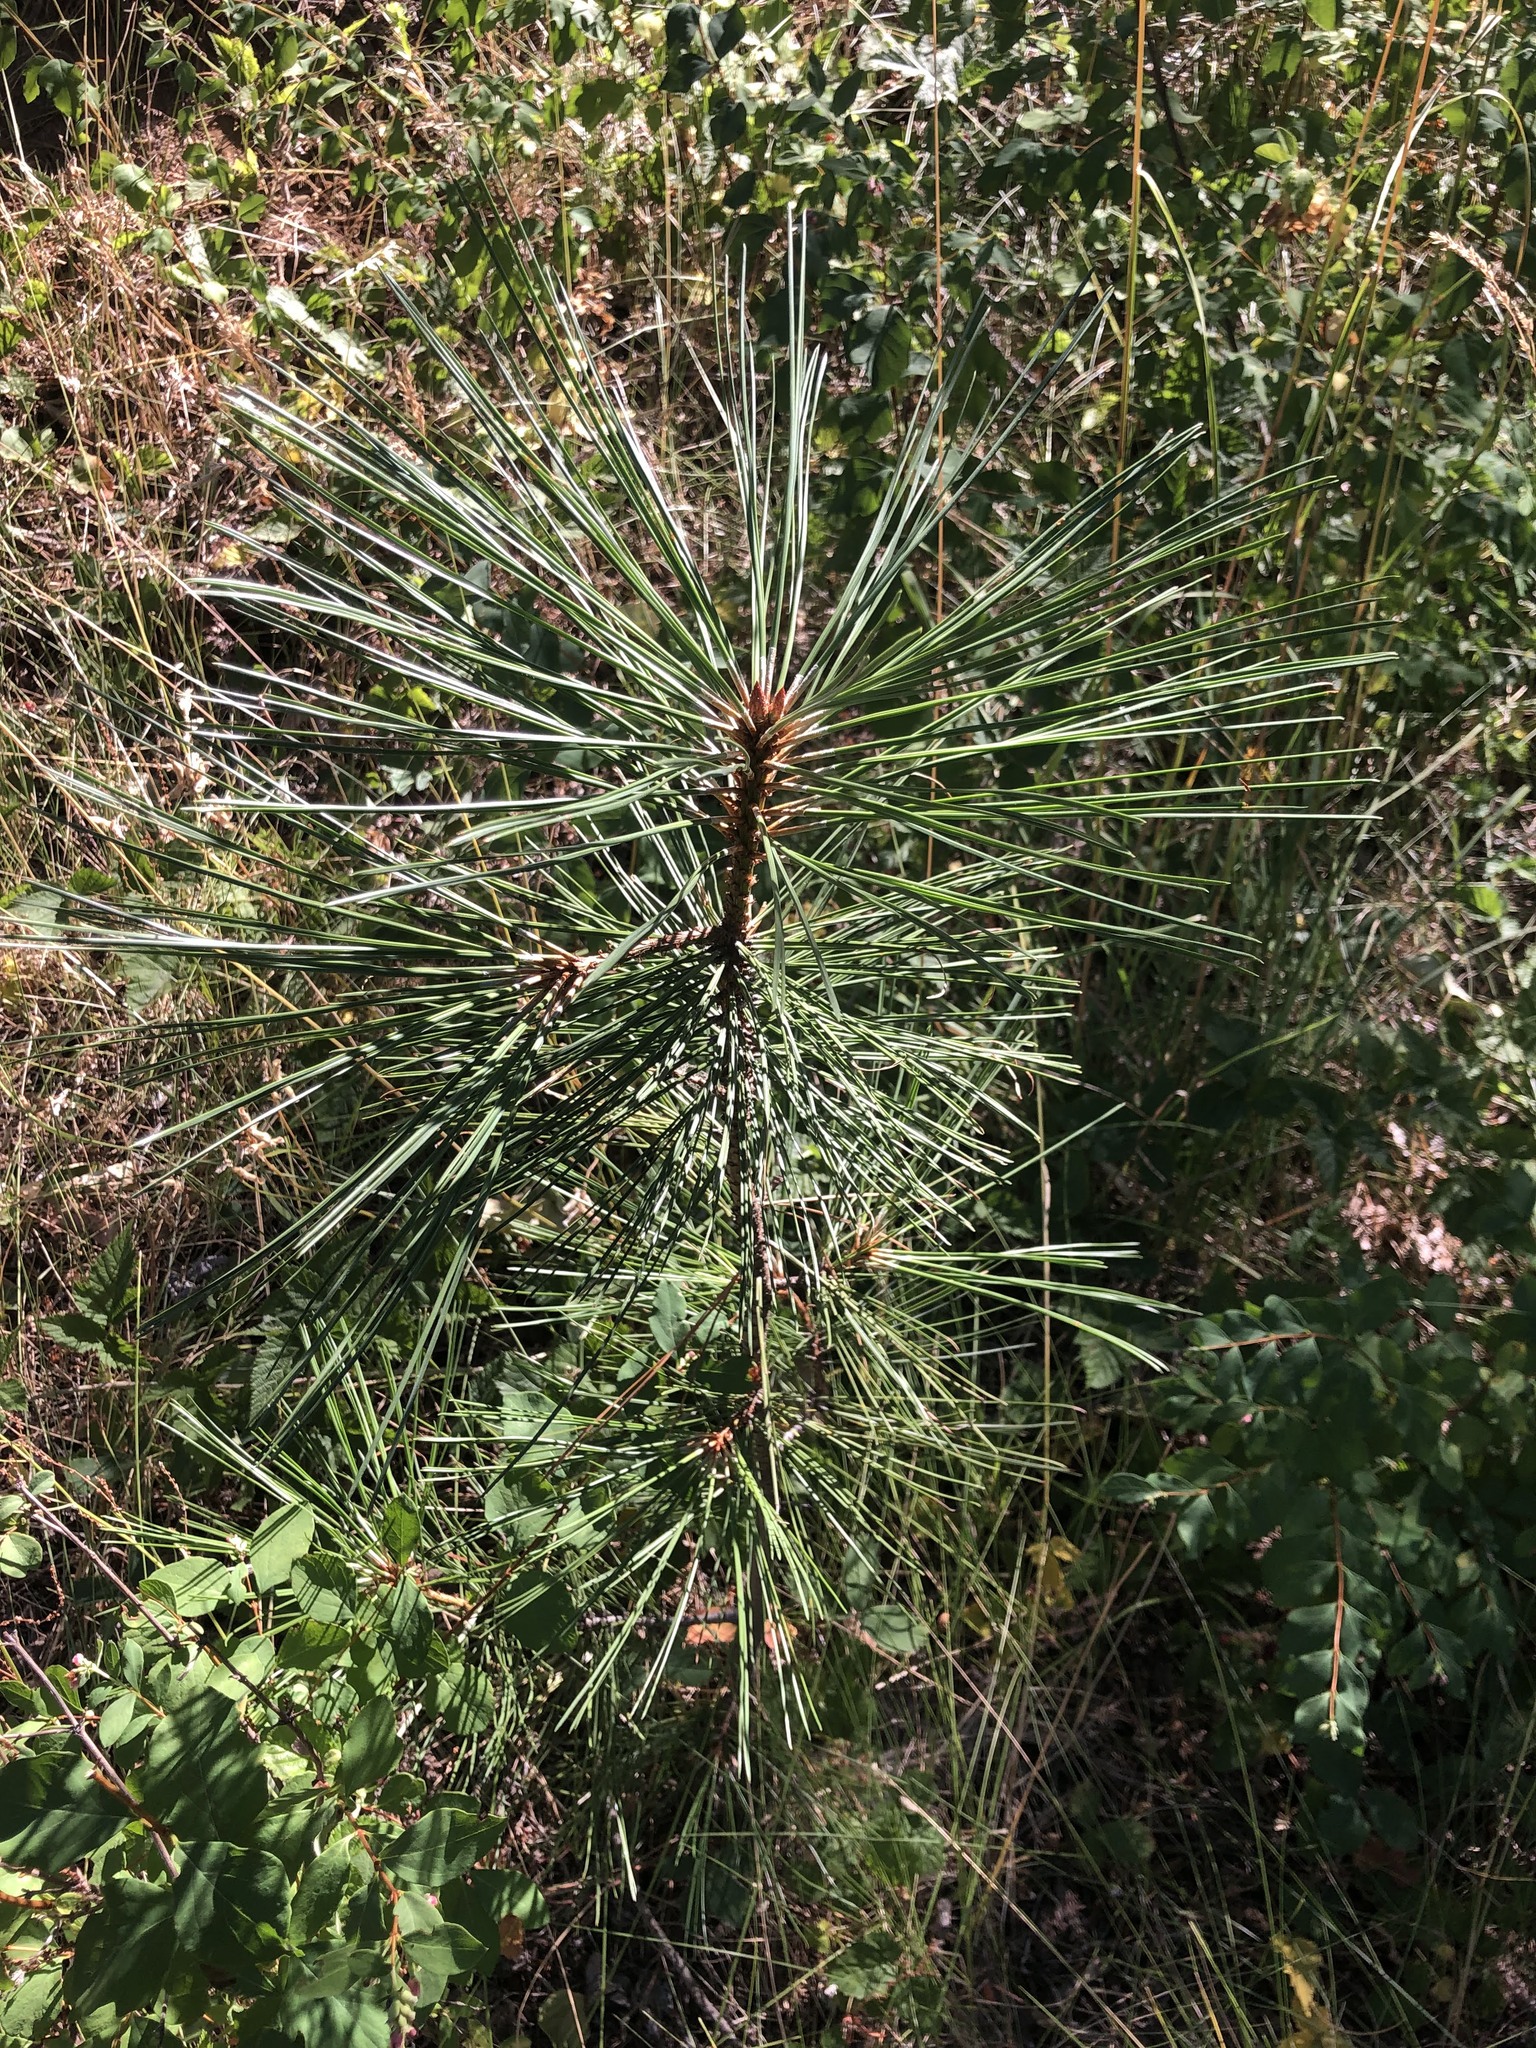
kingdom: Plantae
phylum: Tracheophyta
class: Pinopsida
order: Pinales
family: Pinaceae
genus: Pinus
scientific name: Pinus ponderosa
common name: Western yellow-pine
